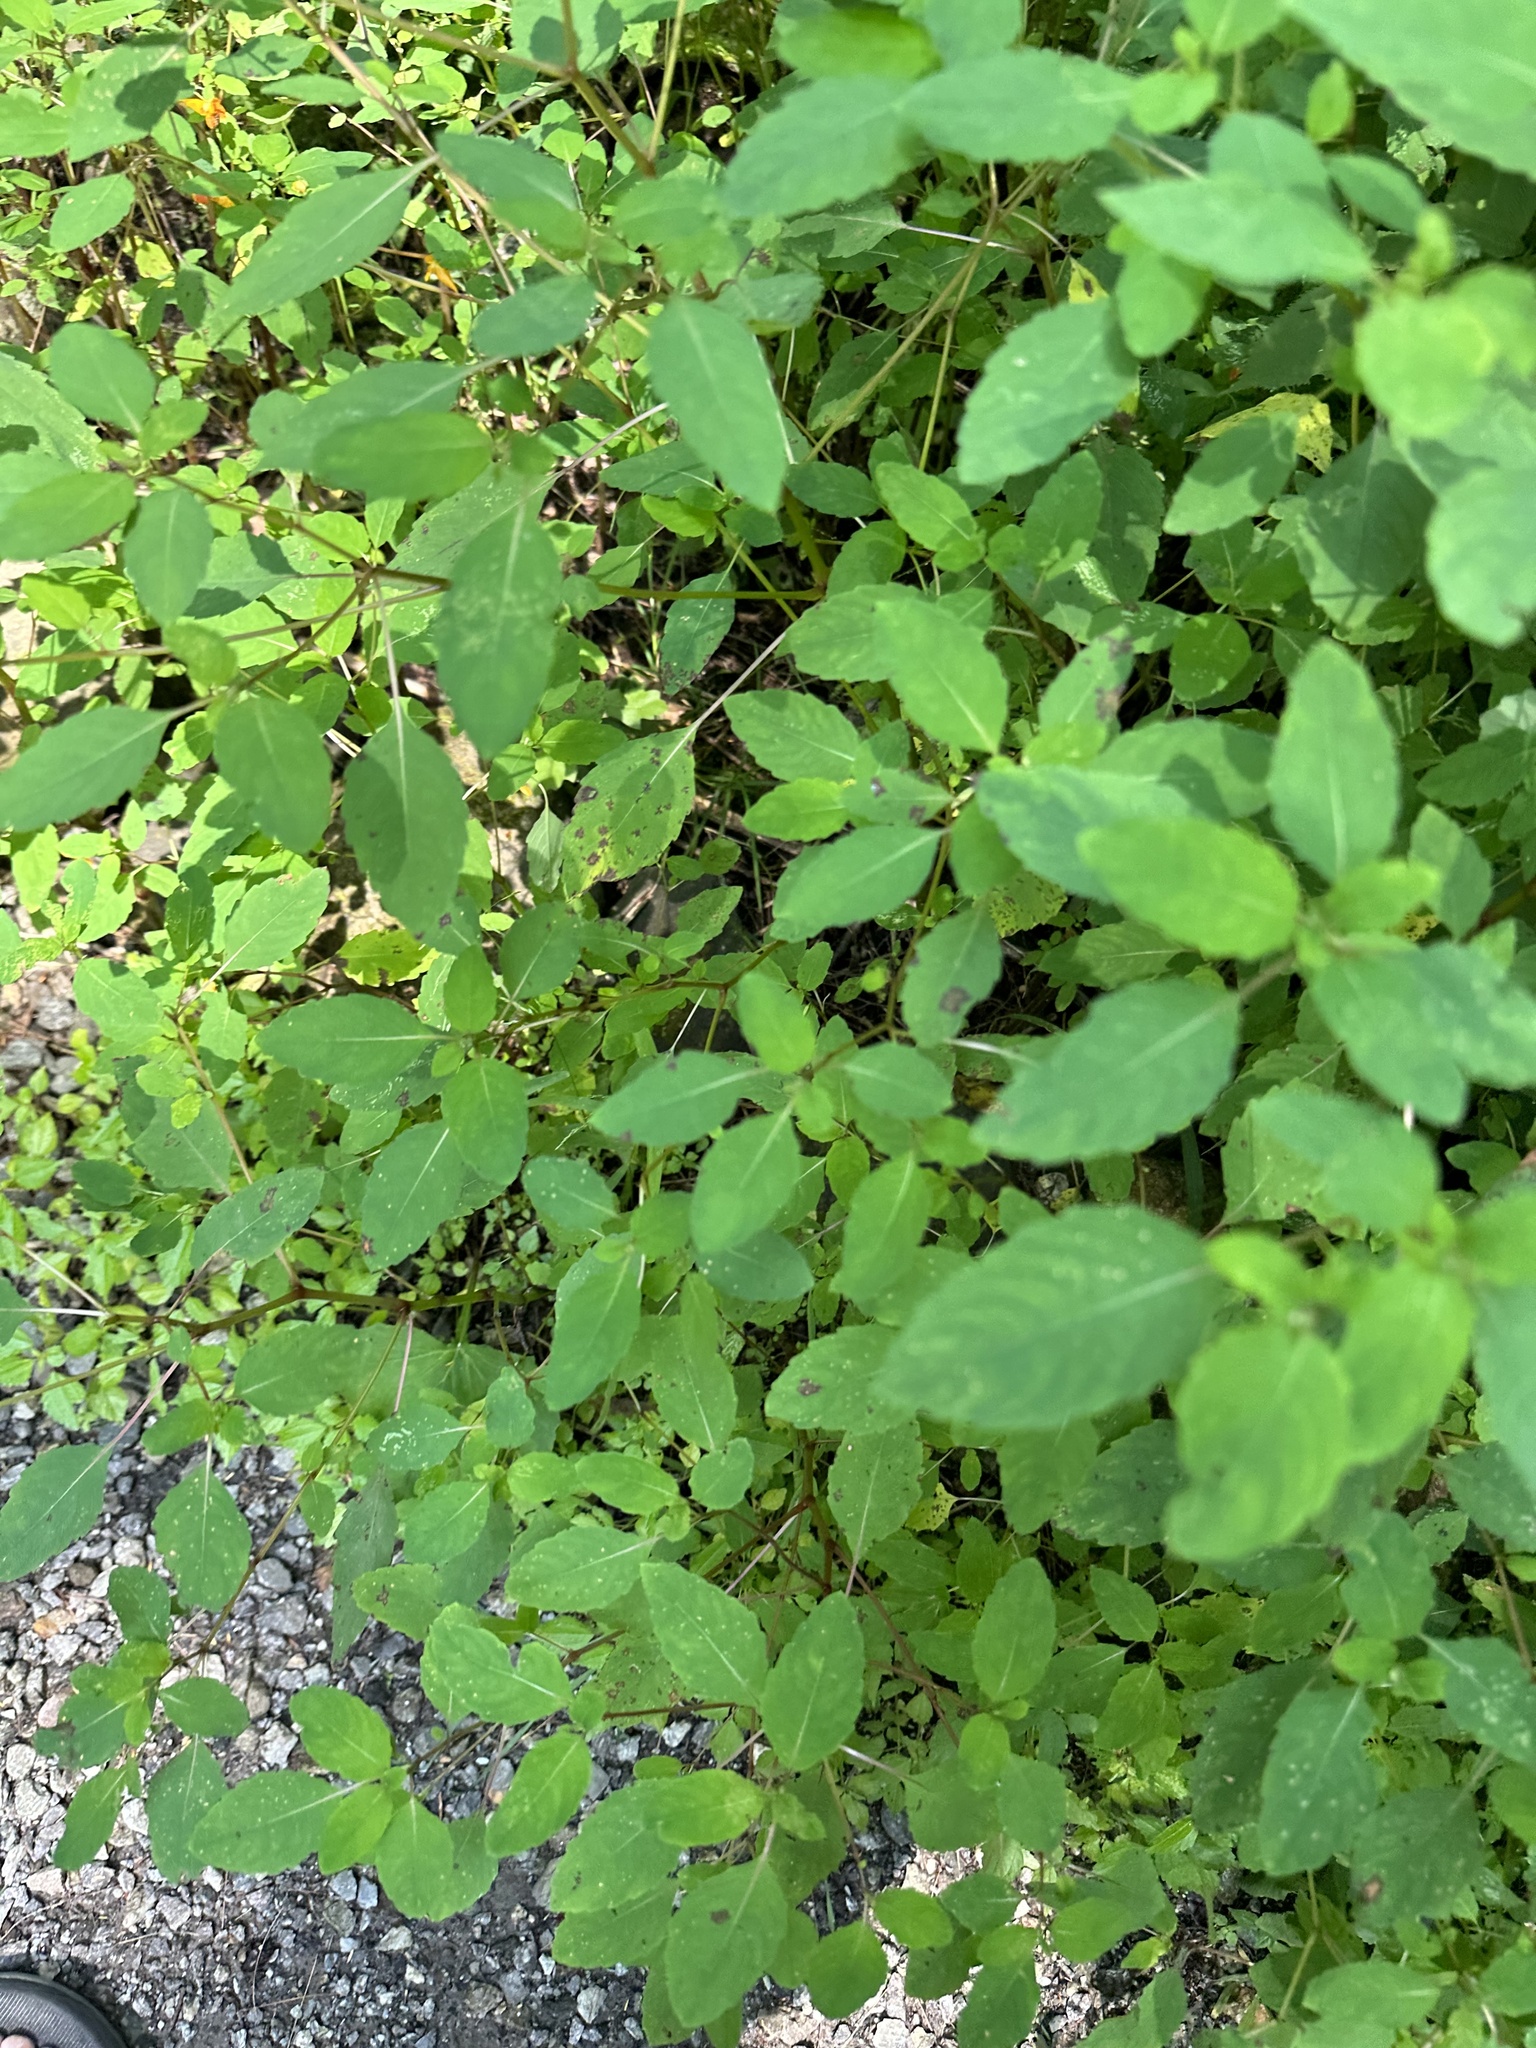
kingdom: Plantae
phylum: Tracheophyta
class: Magnoliopsida
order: Ericales
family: Balsaminaceae
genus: Impatiens
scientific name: Impatiens capensis
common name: Orange balsam
